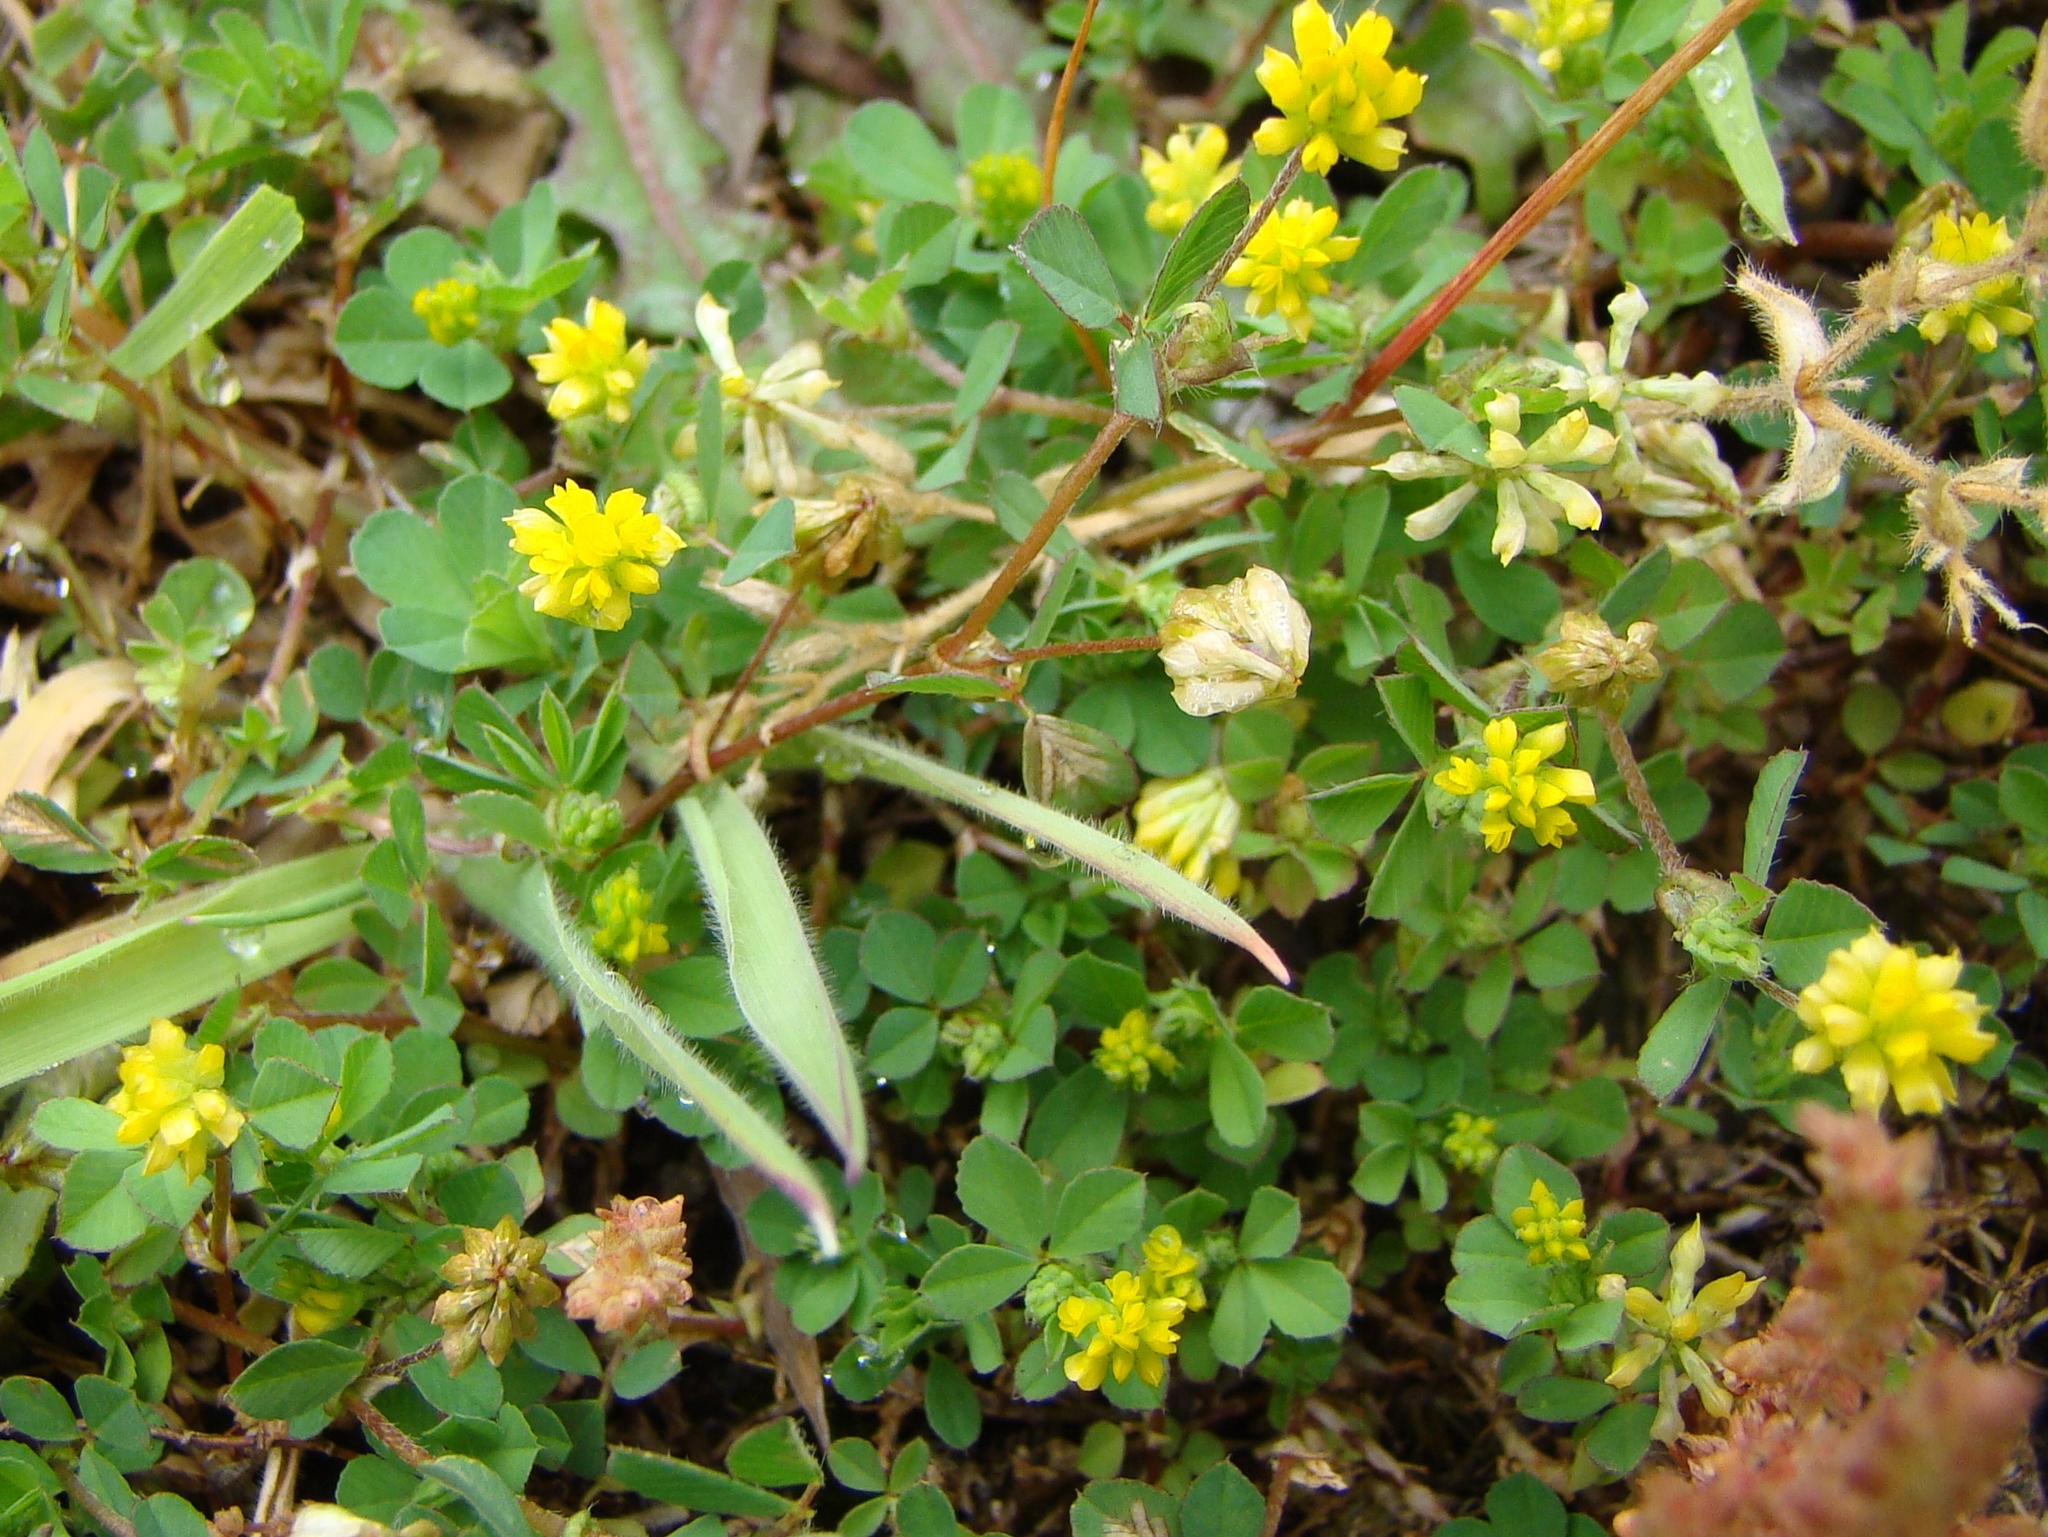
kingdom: Plantae
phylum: Tracheophyta
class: Magnoliopsida
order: Fabales
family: Fabaceae
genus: Trifolium
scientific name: Trifolium dubium
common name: Suckling clover
